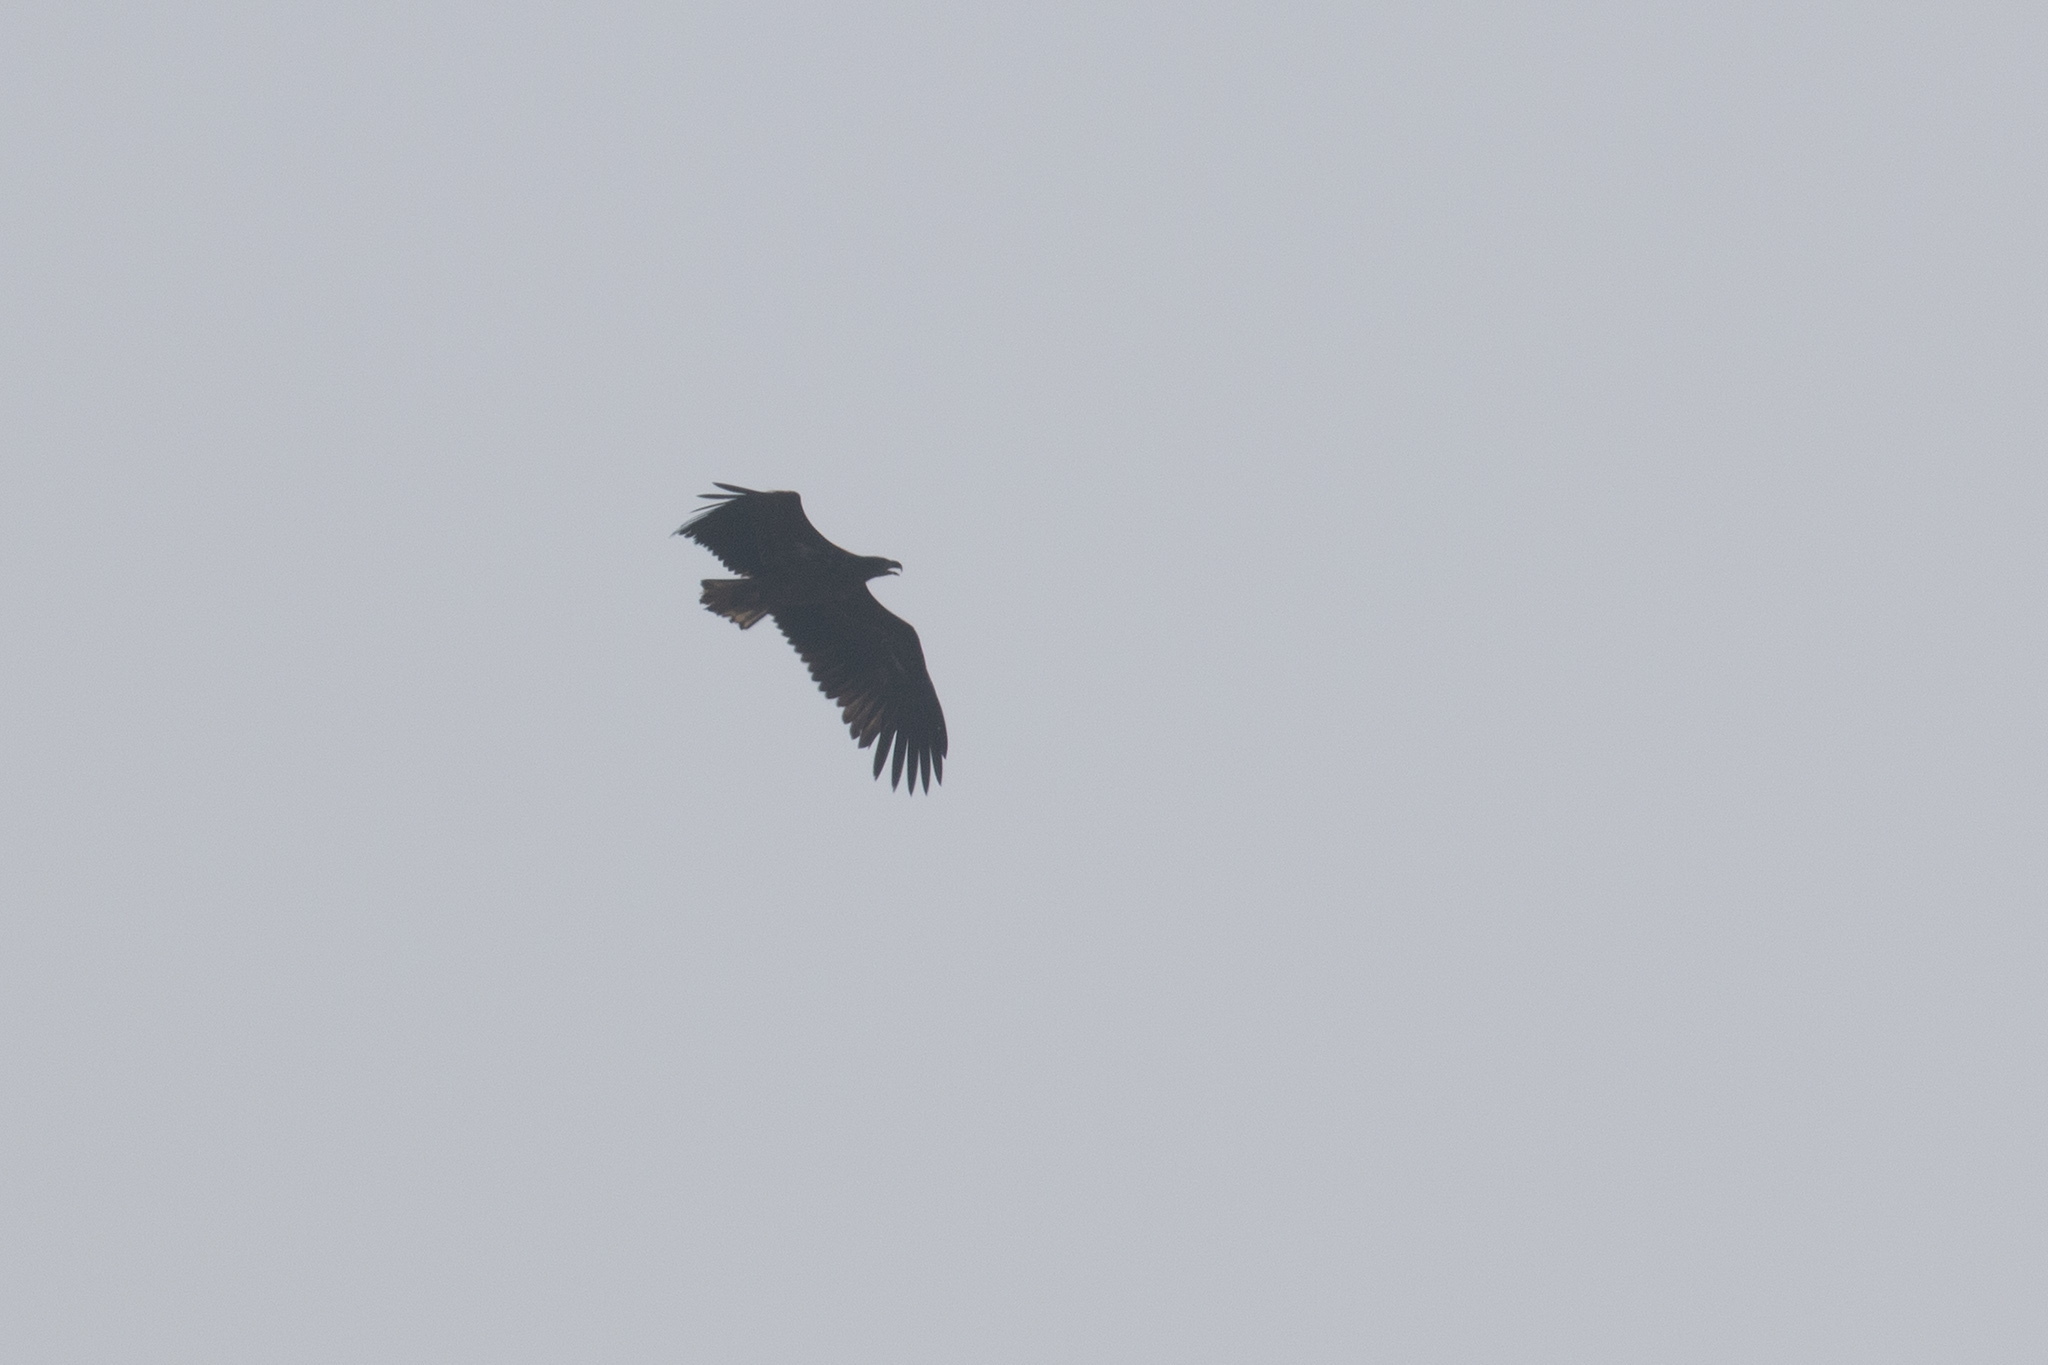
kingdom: Animalia
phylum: Chordata
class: Aves
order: Accipitriformes
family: Accipitridae
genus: Haliaeetus
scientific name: Haliaeetus albicilla
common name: White-tailed eagle
